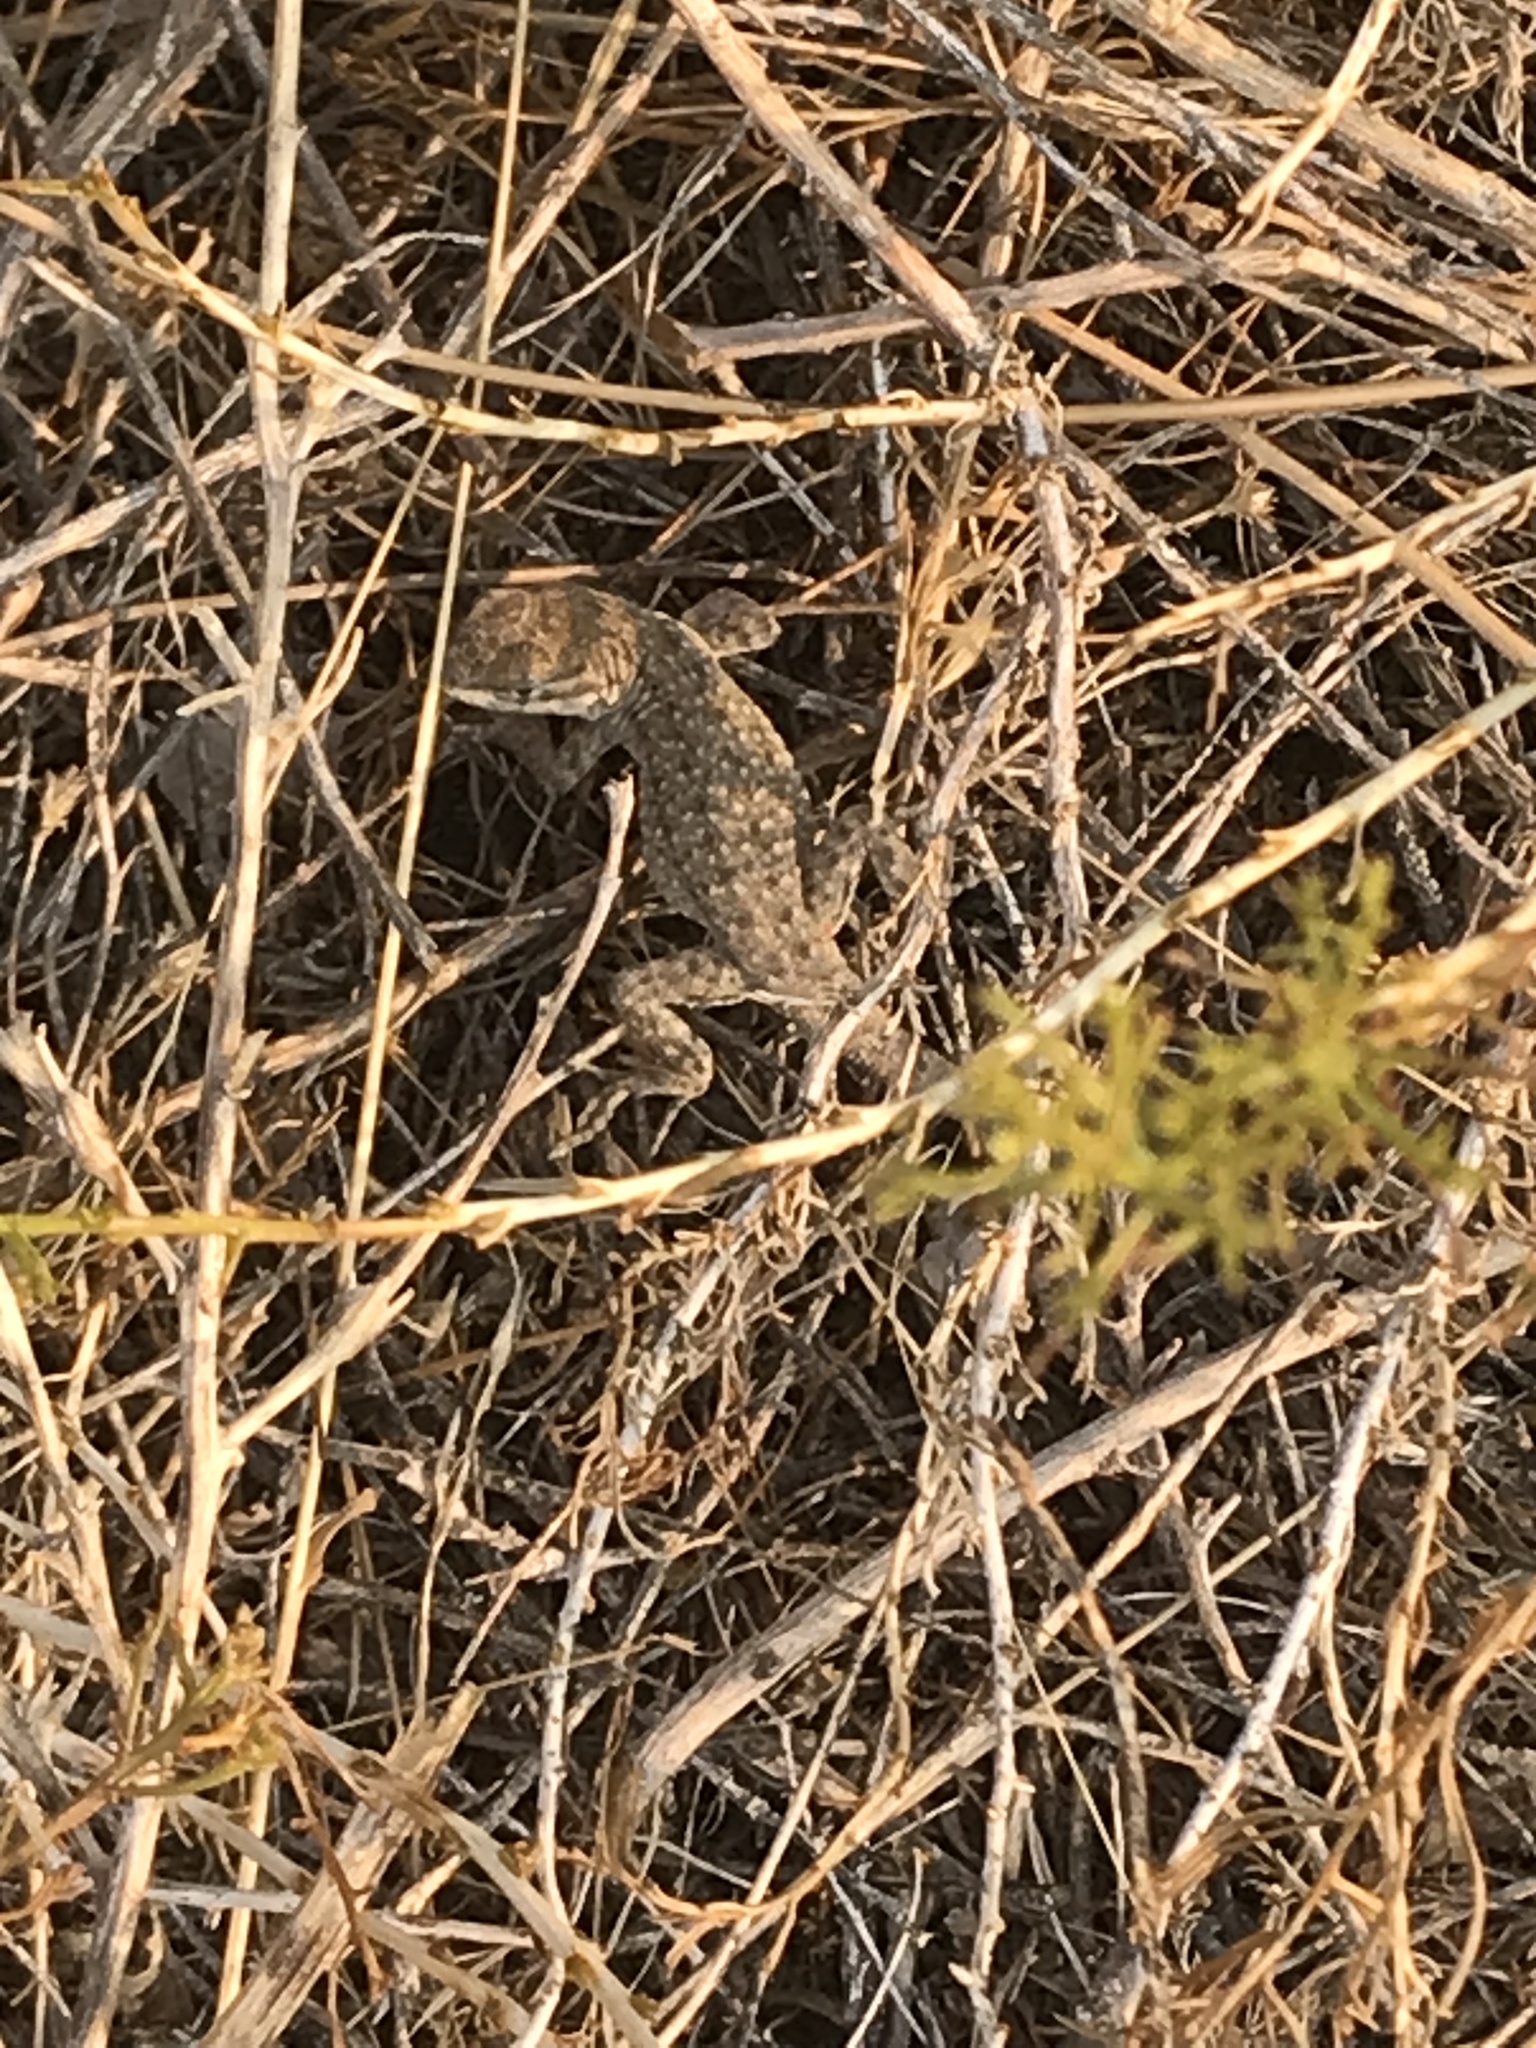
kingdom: Animalia
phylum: Chordata
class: Squamata
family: Phrynosomatidae
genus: Uta
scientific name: Uta stansburiana
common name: Side-blotched lizard
